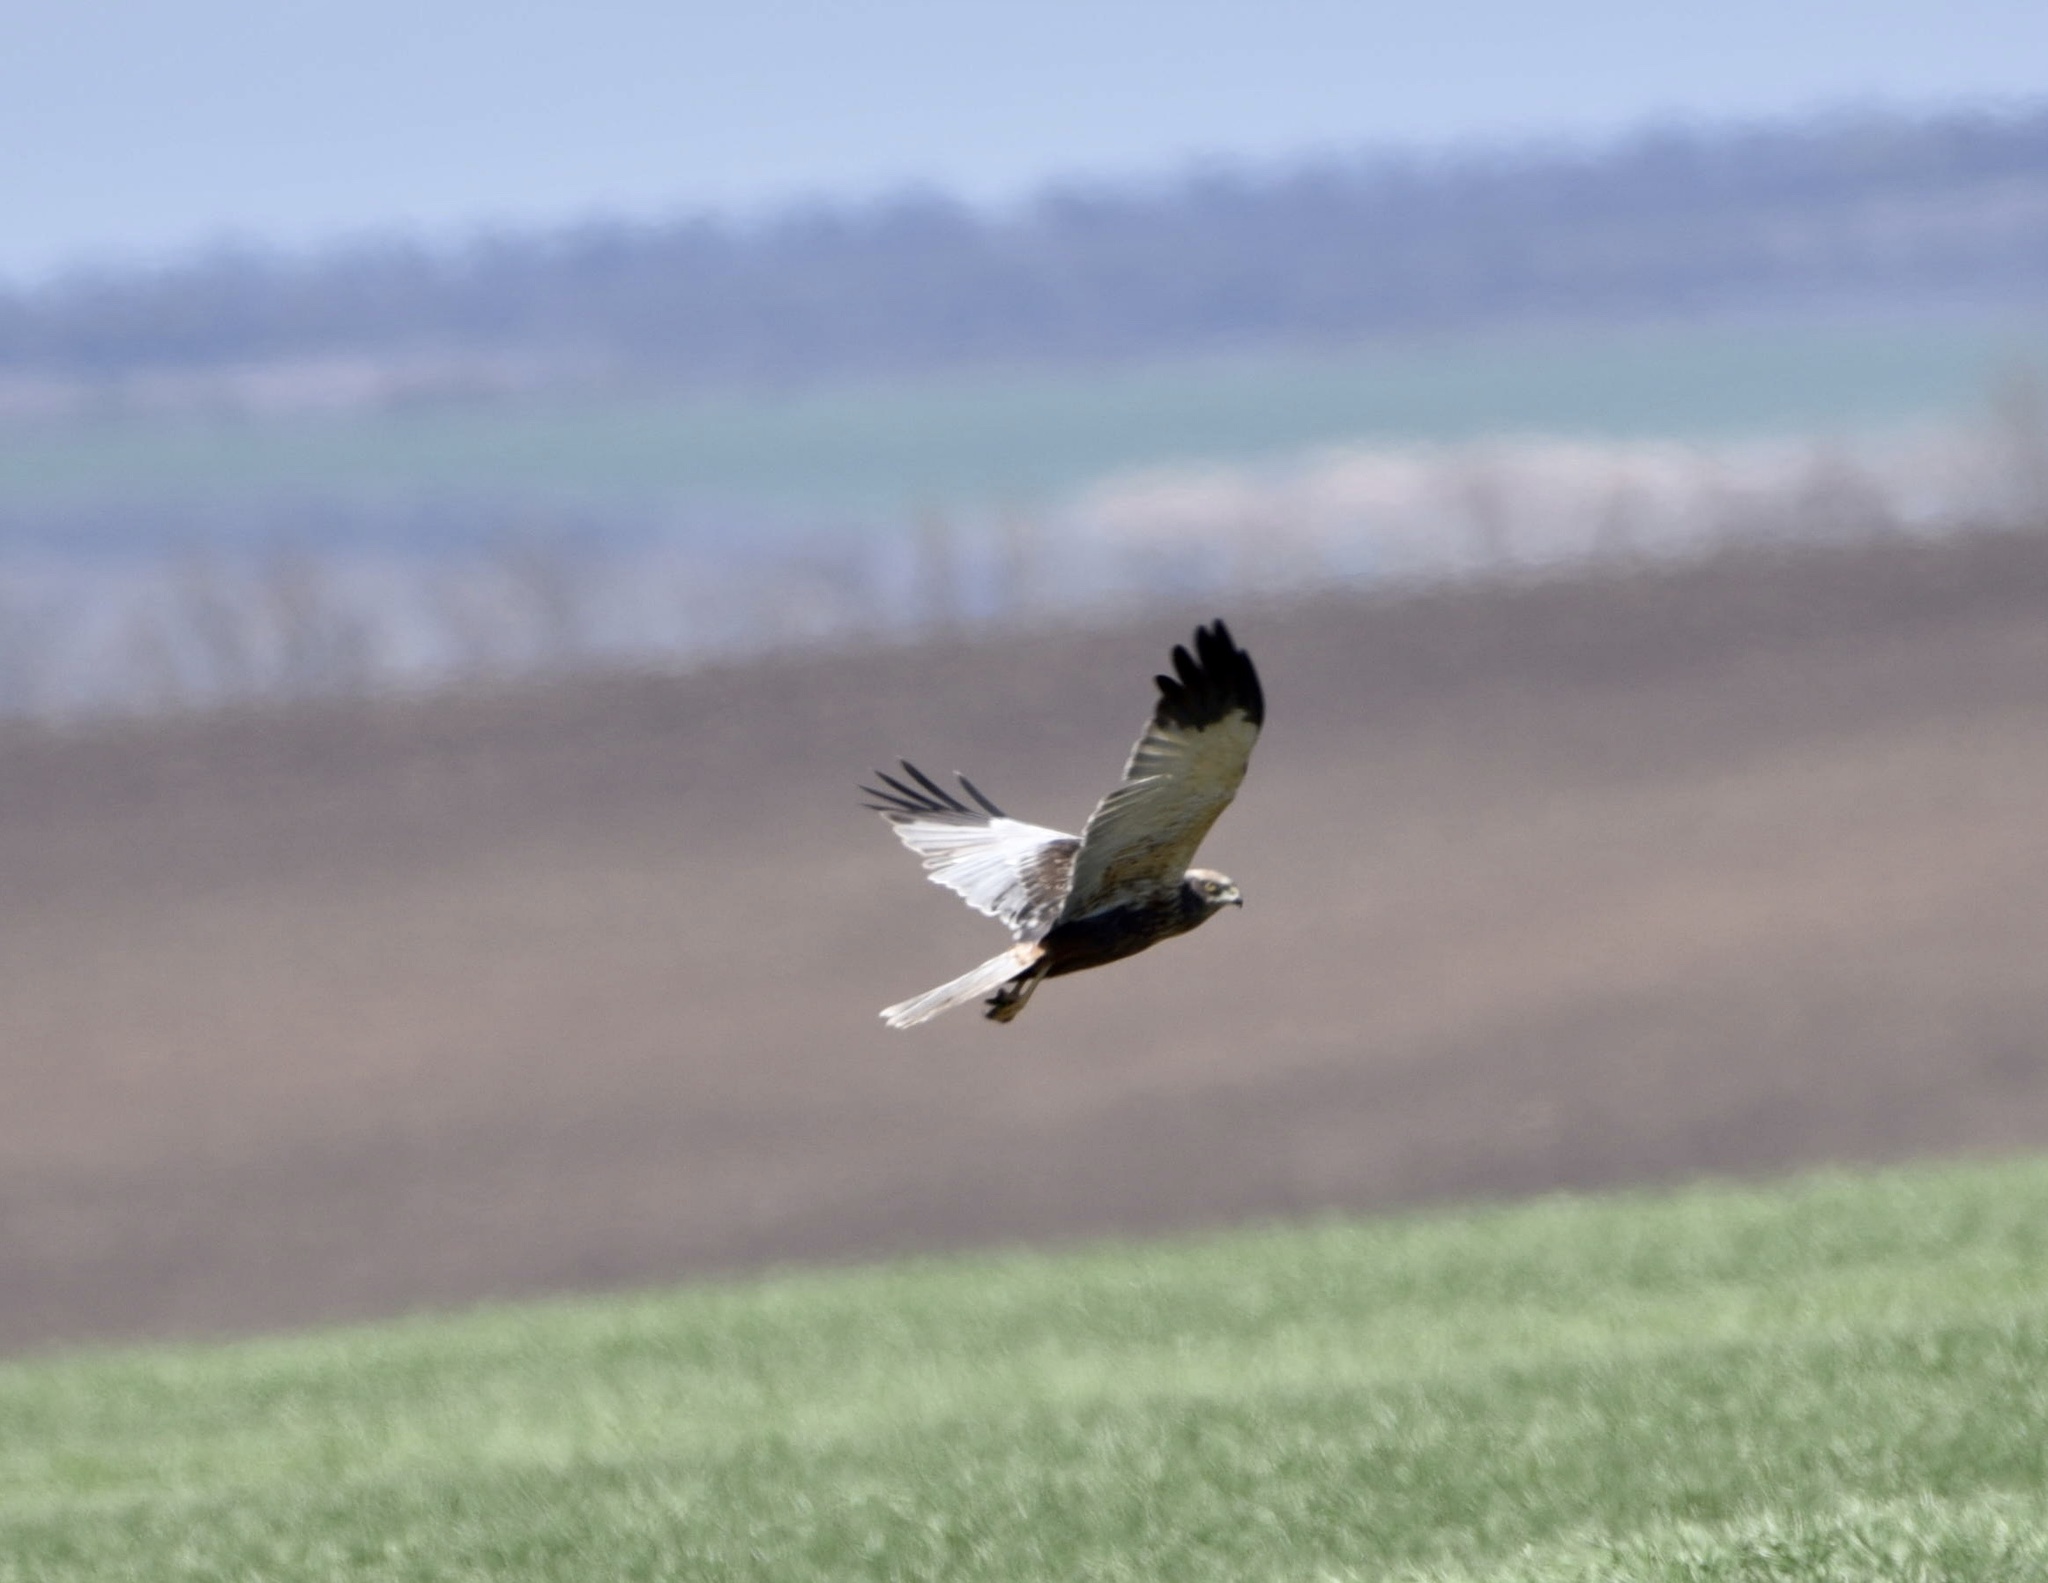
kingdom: Animalia
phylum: Chordata
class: Aves
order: Accipitriformes
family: Accipitridae
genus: Circus
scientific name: Circus aeruginosus
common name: Western marsh harrier
